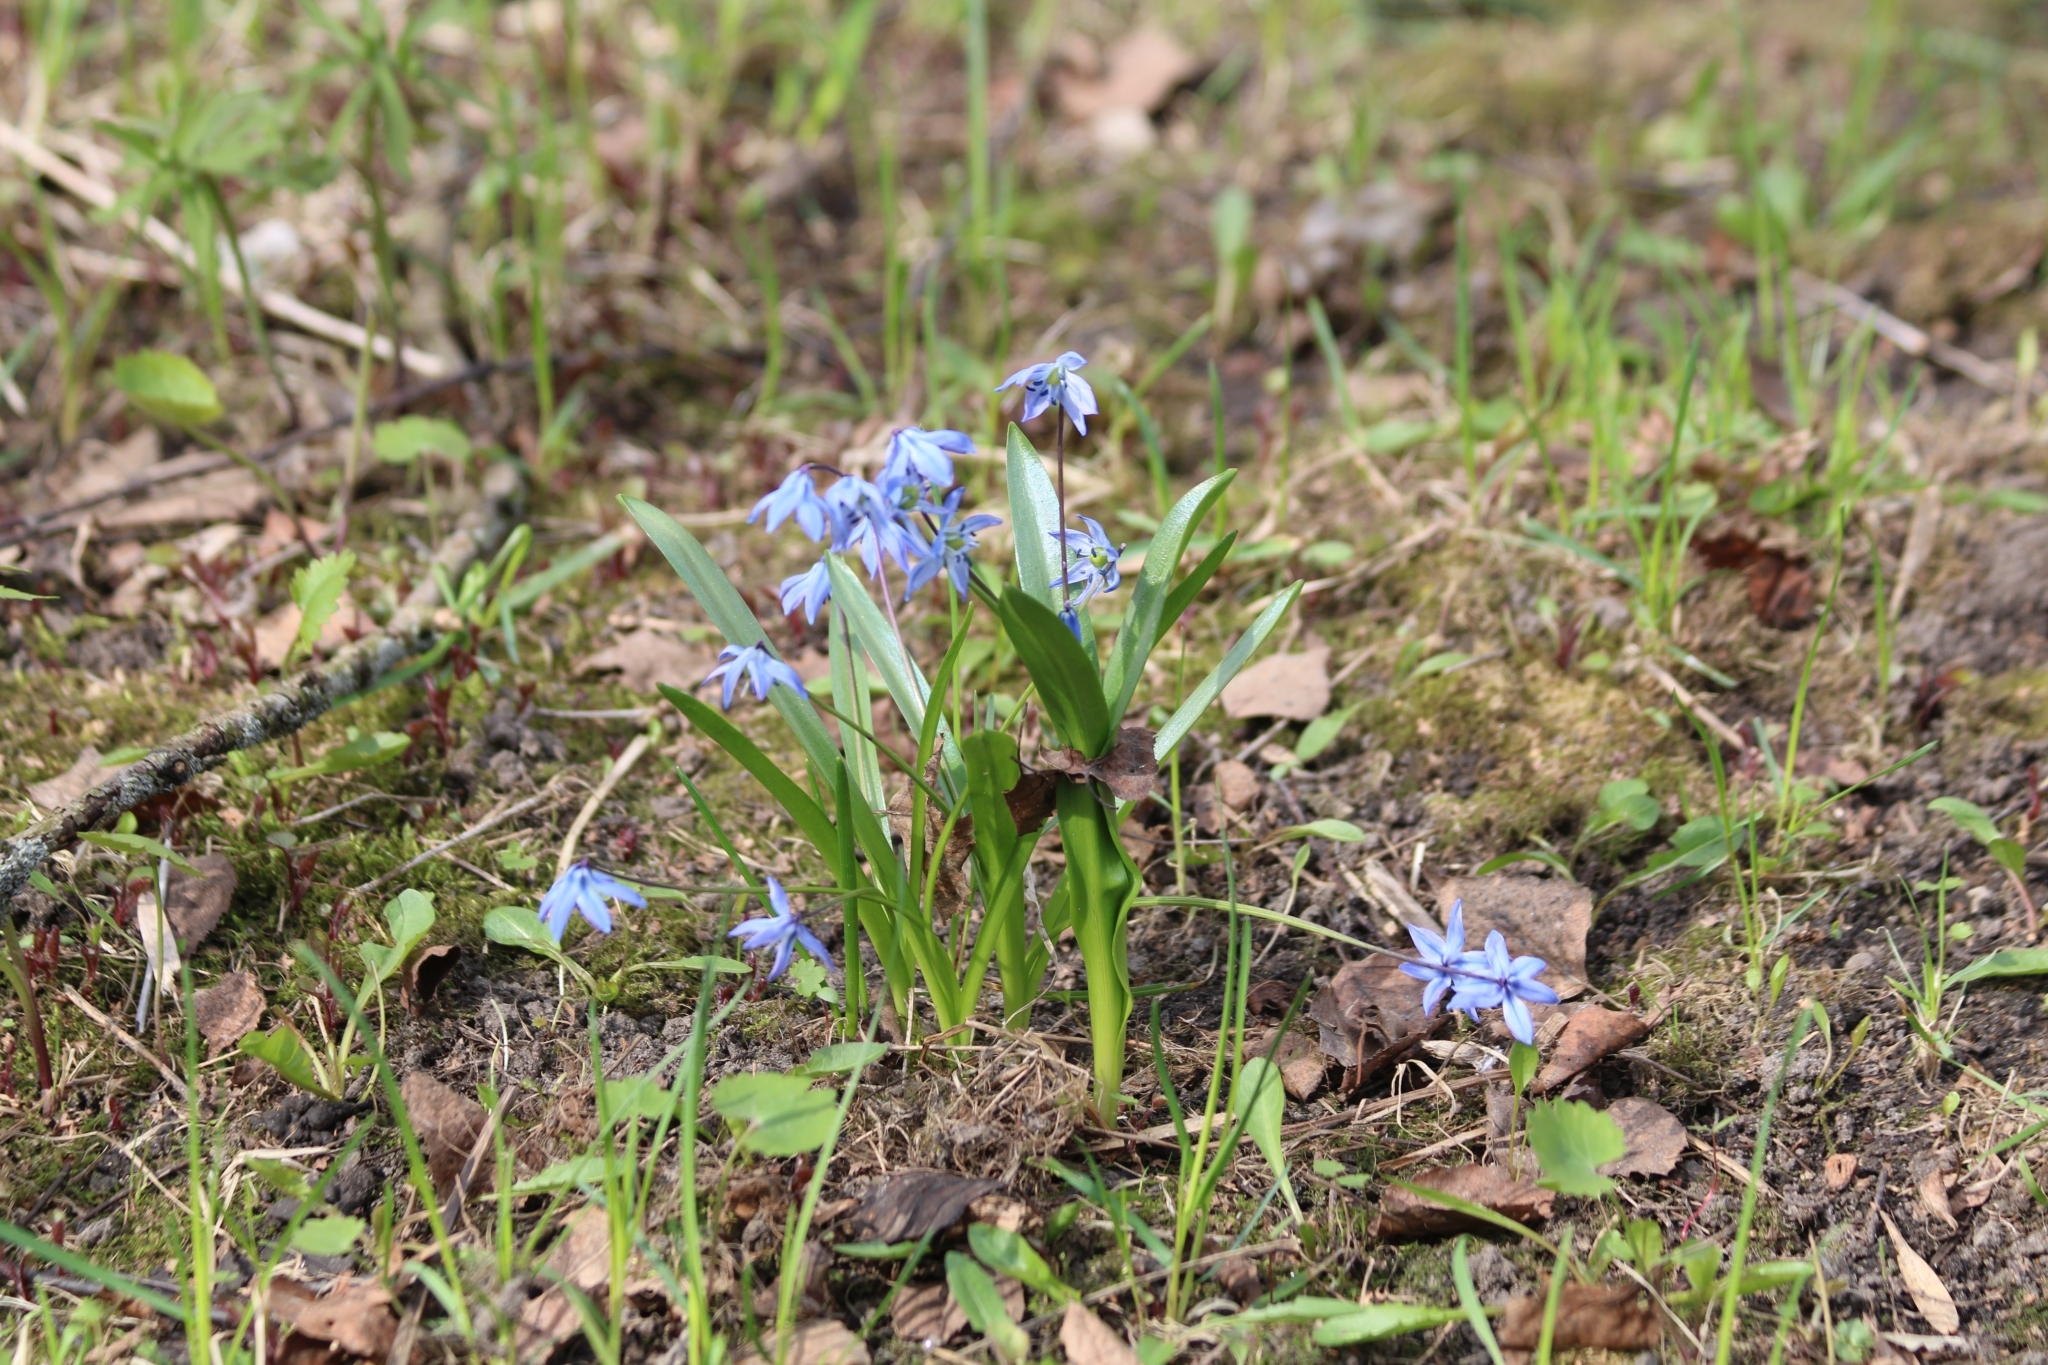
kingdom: Plantae
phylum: Tracheophyta
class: Liliopsida
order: Asparagales
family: Asparagaceae
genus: Scilla
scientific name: Scilla siberica
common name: Siberian squill
